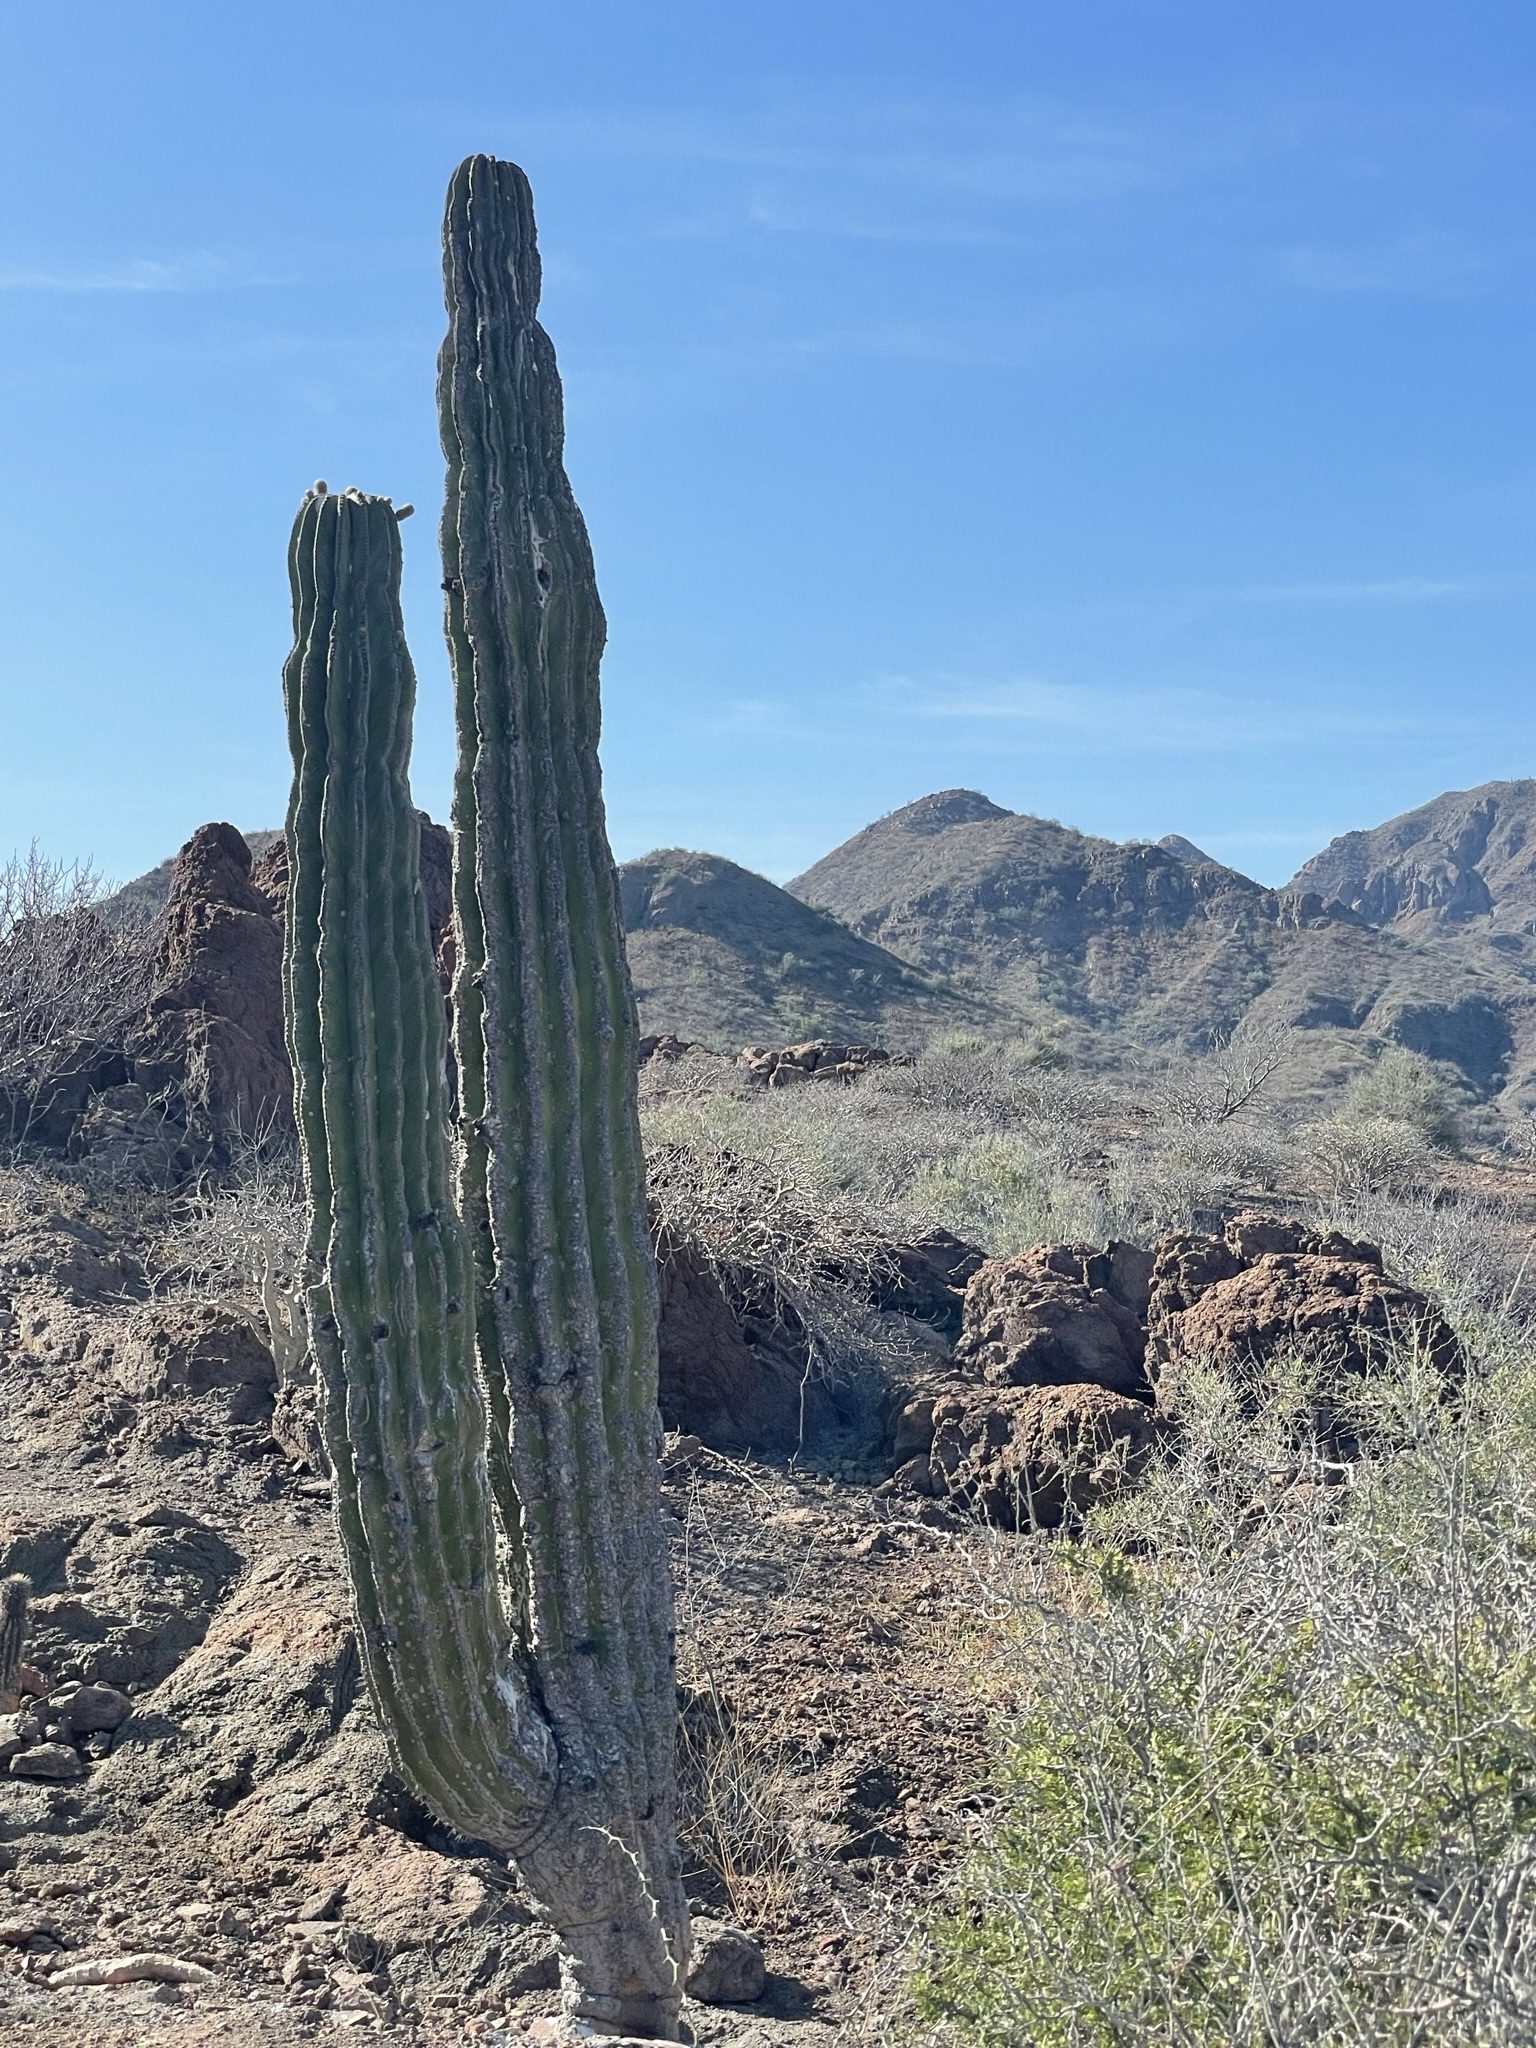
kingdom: Plantae
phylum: Tracheophyta
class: Magnoliopsida
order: Caryophyllales
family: Cactaceae
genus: Pachycereus
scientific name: Pachycereus pringlei
